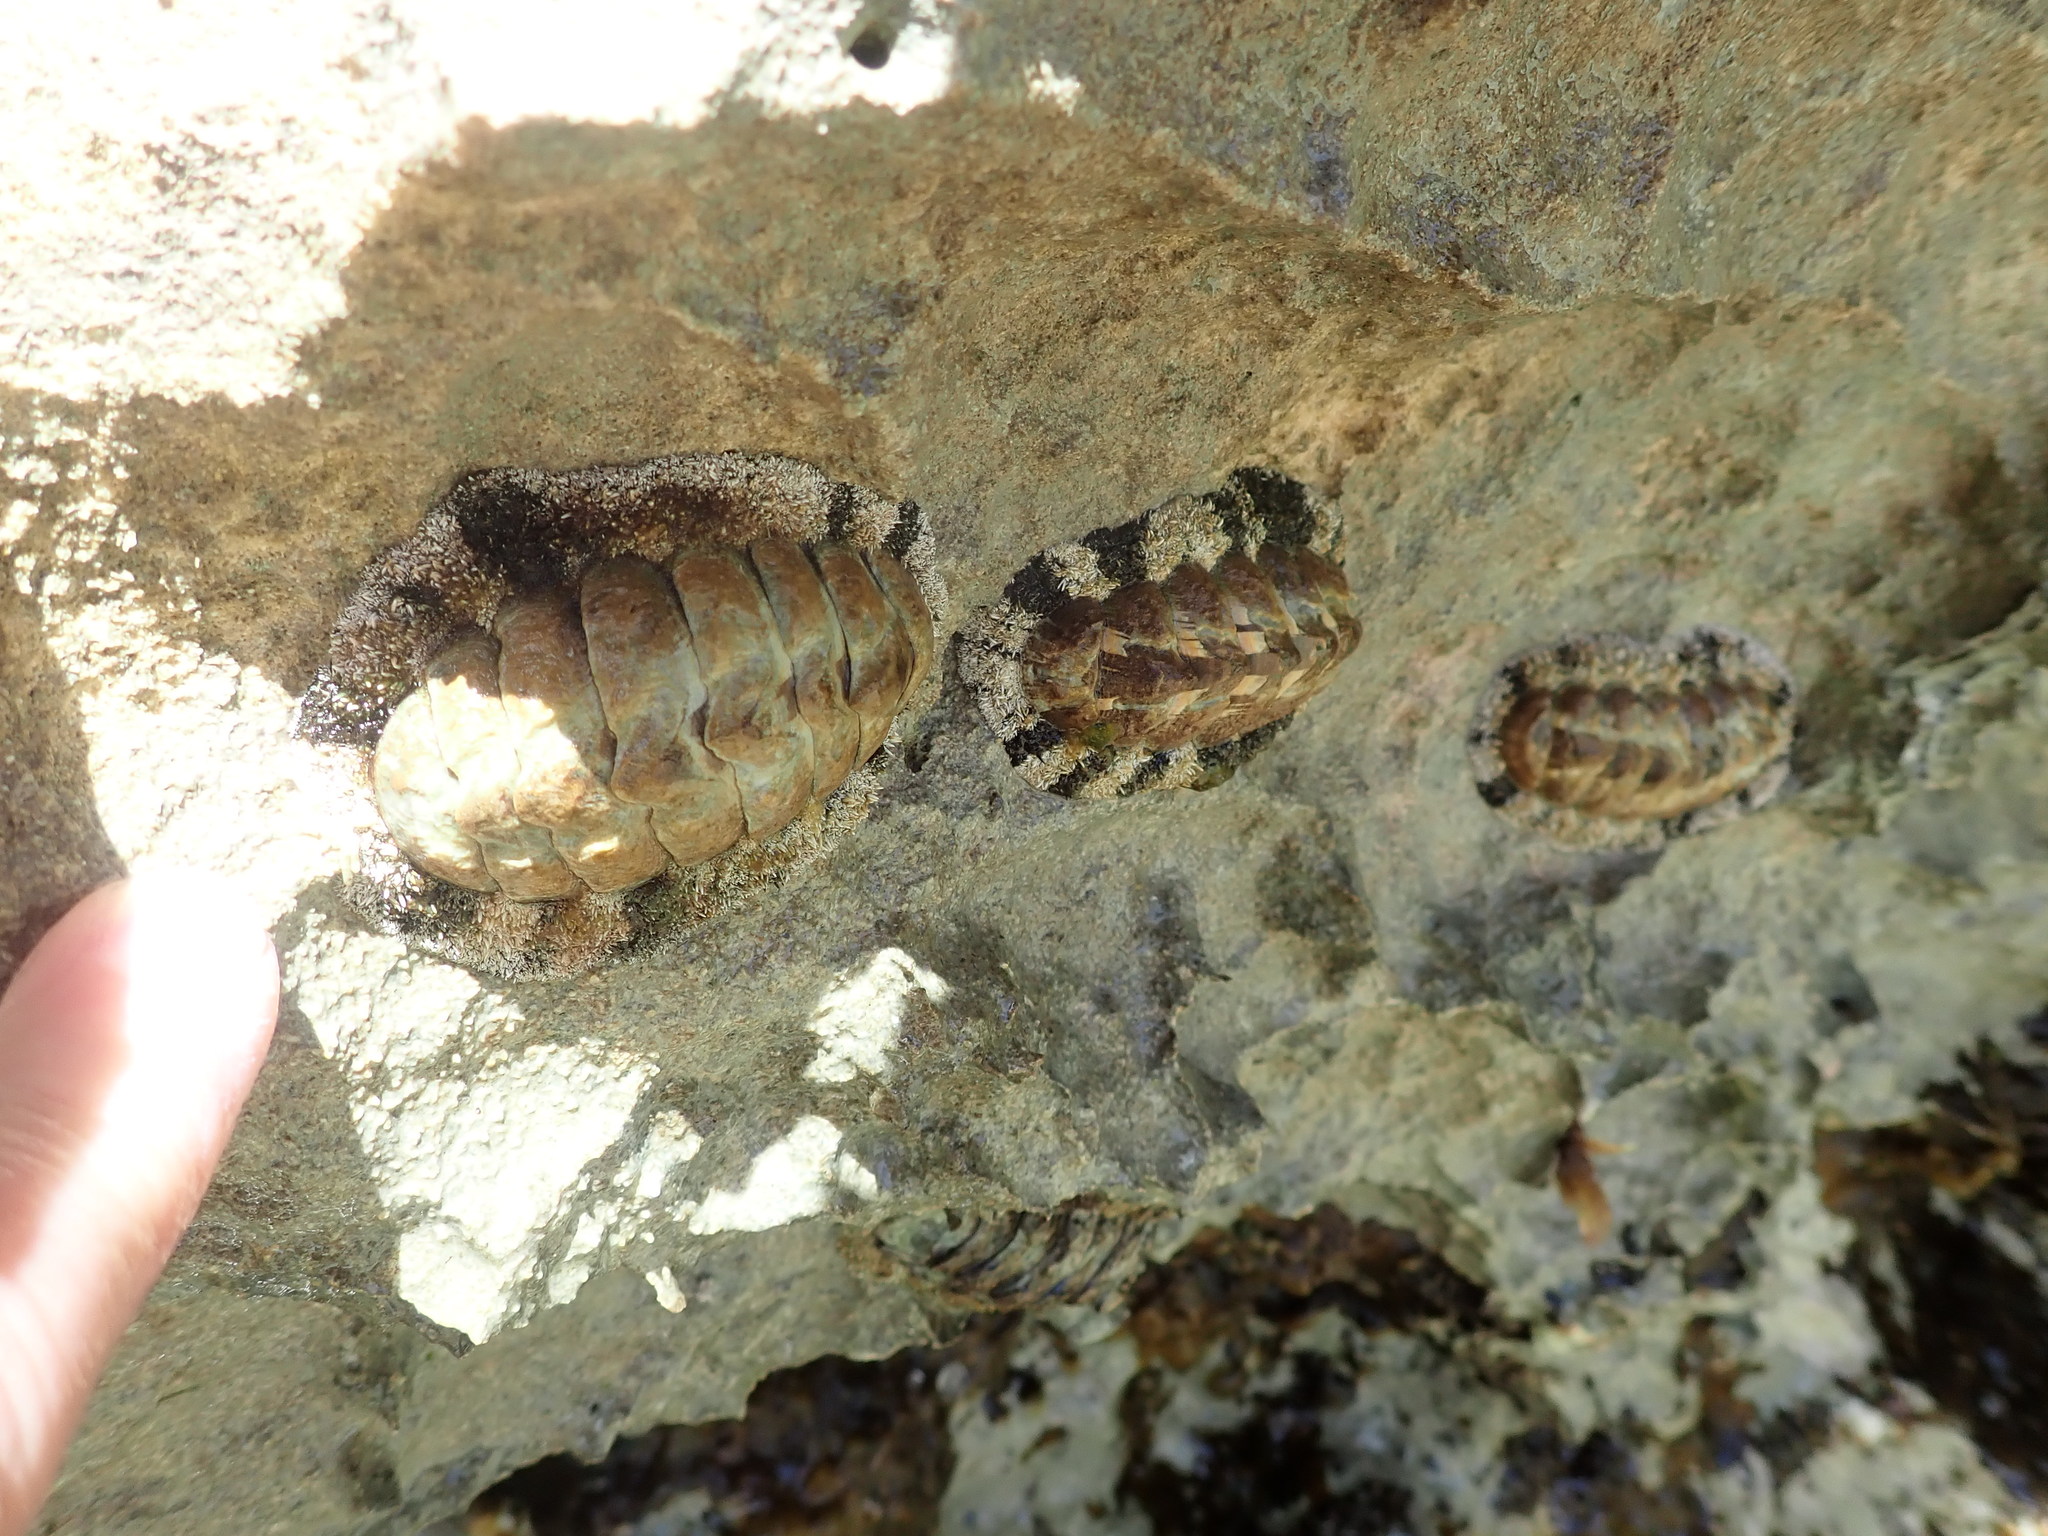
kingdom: Animalia
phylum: Mollusca
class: Polyplacophora
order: Chitonida
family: Chitonidae
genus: Acanthopleura
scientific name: Acanthopleura granulata
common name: West indian fuzzy chiton
